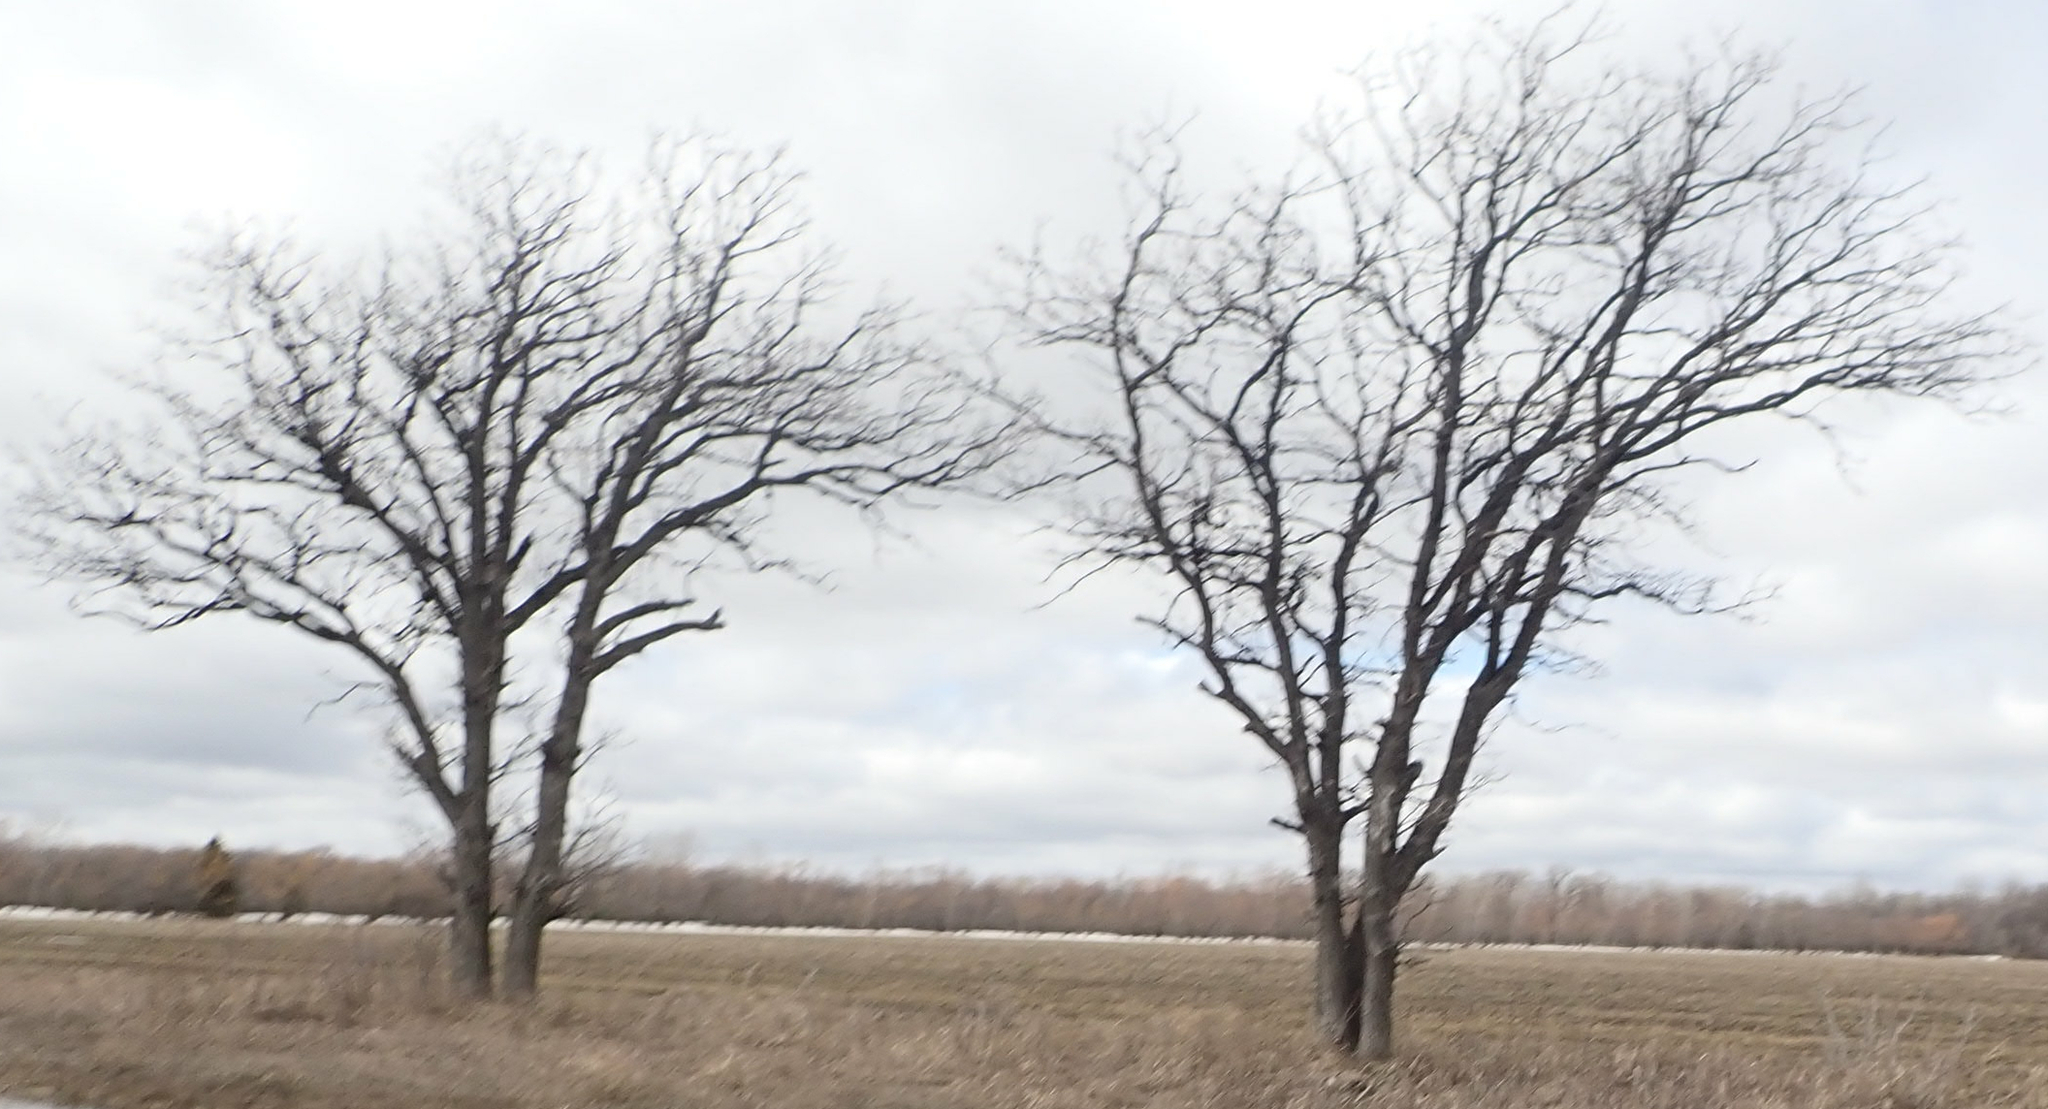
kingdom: Plantae
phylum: Tracheophyta
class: Magnoliopsida
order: Fagales
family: Fagaceae
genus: Quercus
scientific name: Quercus macrocarpa
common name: Bur oak
